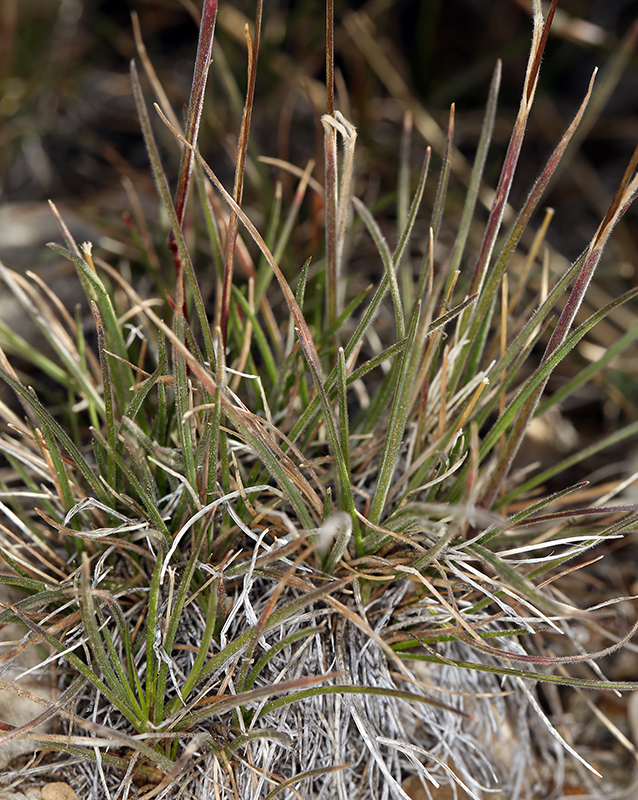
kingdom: Plantae
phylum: Tracheophyta
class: Liliopsida
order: Poales
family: Poaceae
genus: Calamagrostis
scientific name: Calamagrostis purpurascens
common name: Purple reedgrass
